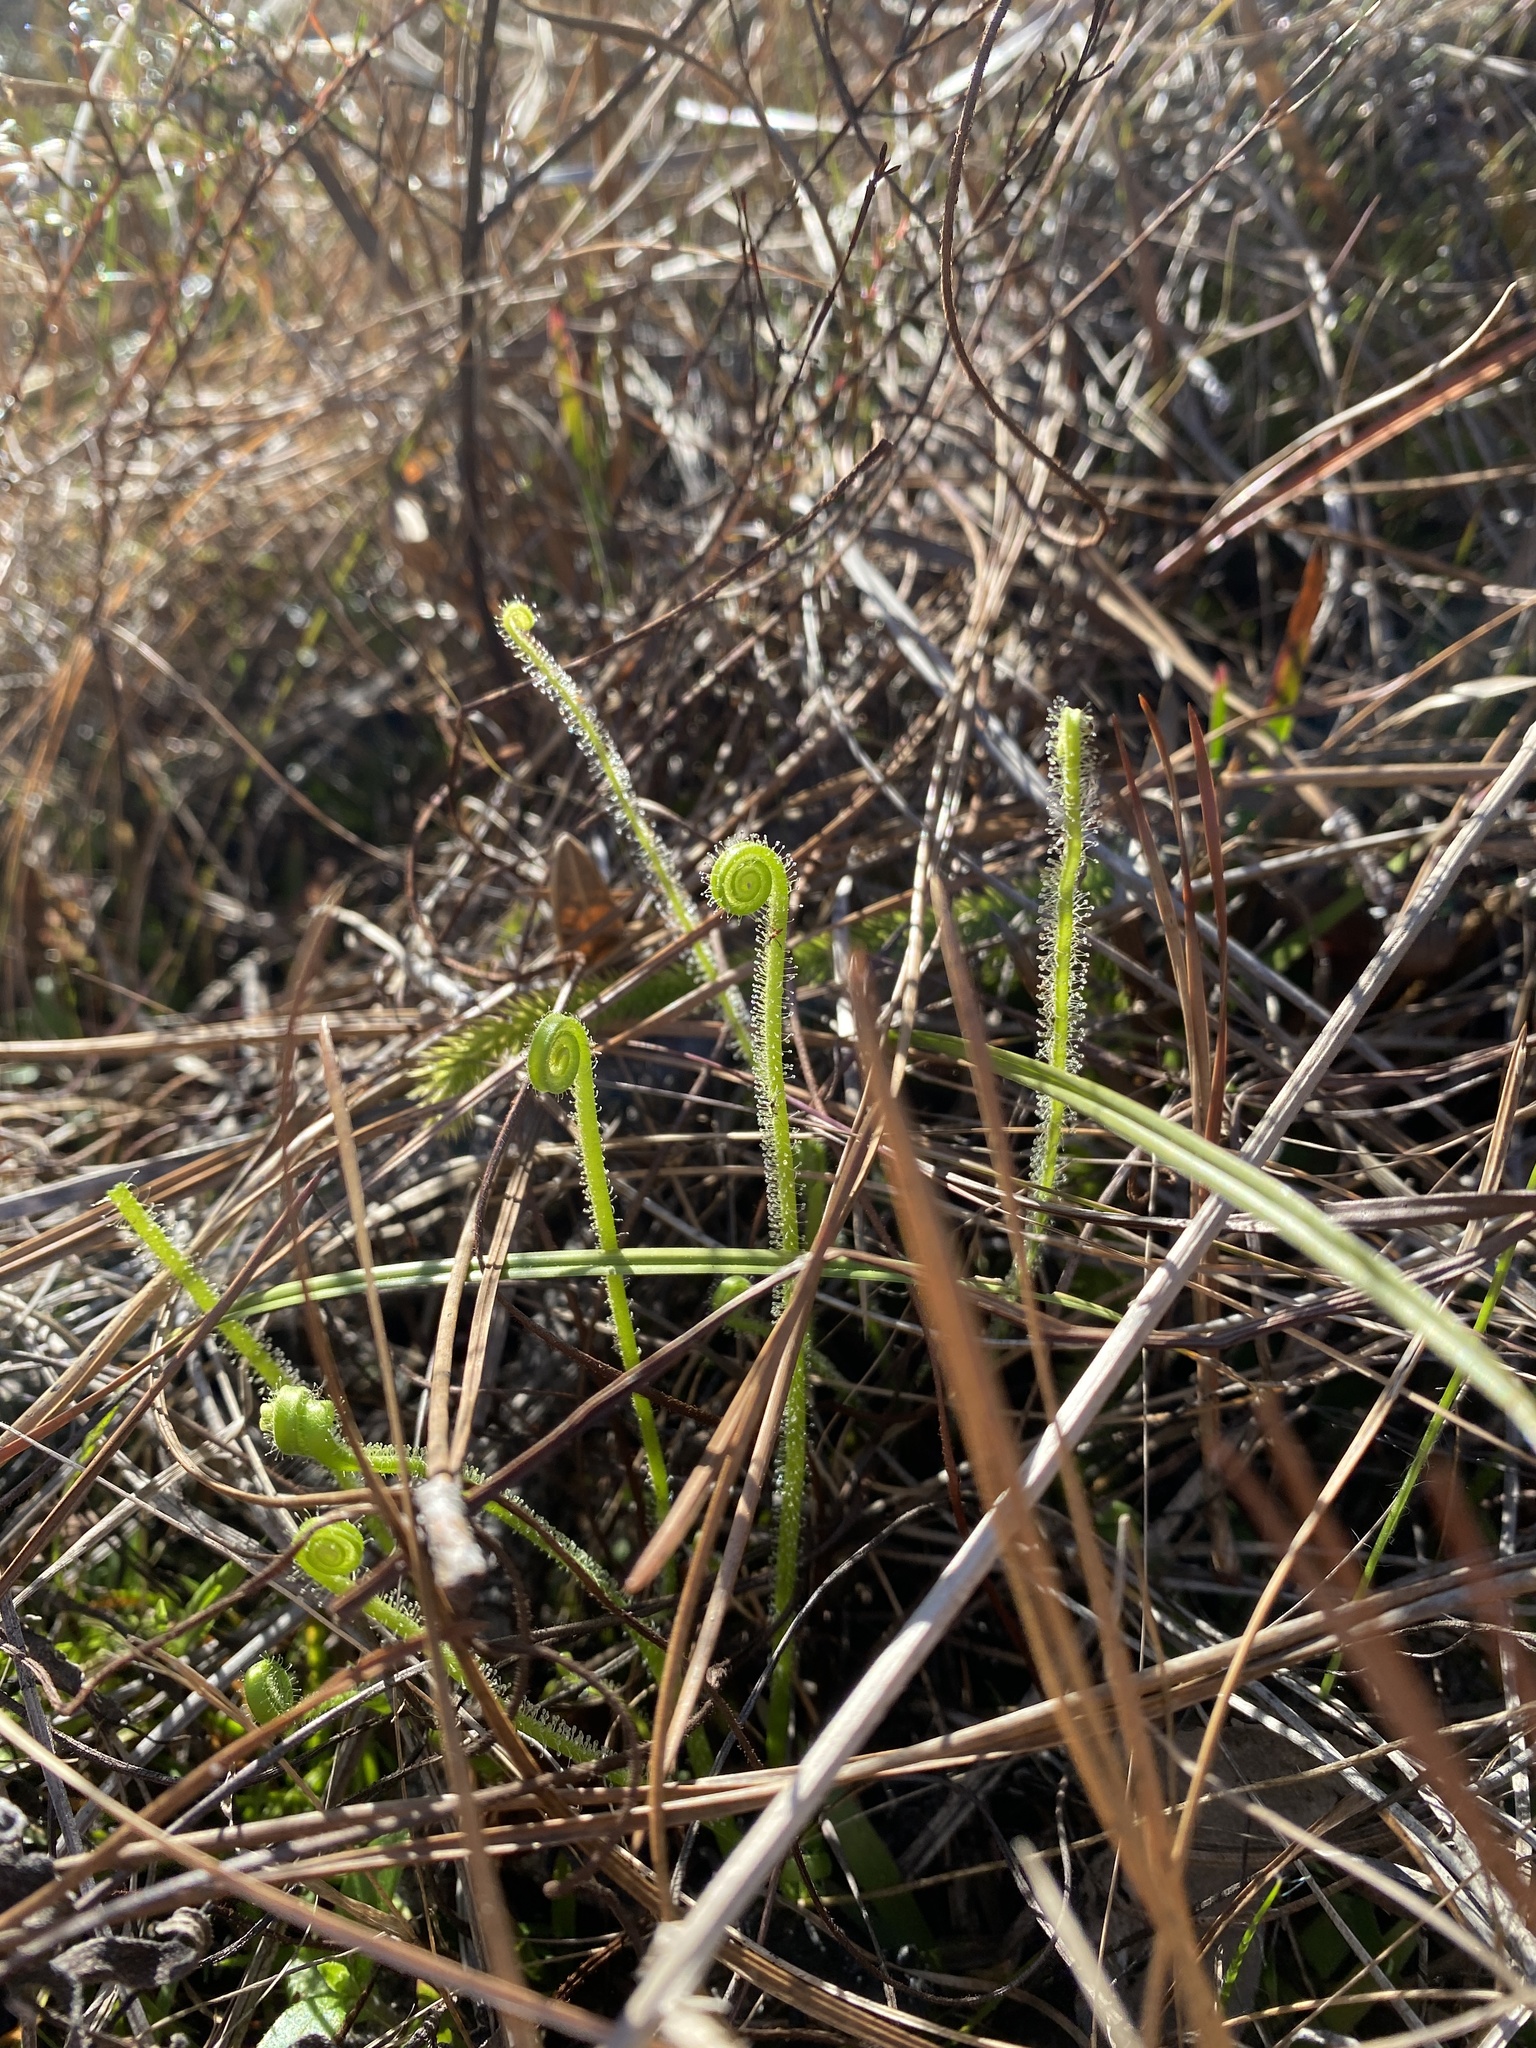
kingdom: Plantae
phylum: Tracheophyta
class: Magnoliopsida
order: Caryophyllales
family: Droseraceae
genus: Drosera
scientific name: Drosera filiformis
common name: Dew-thread
